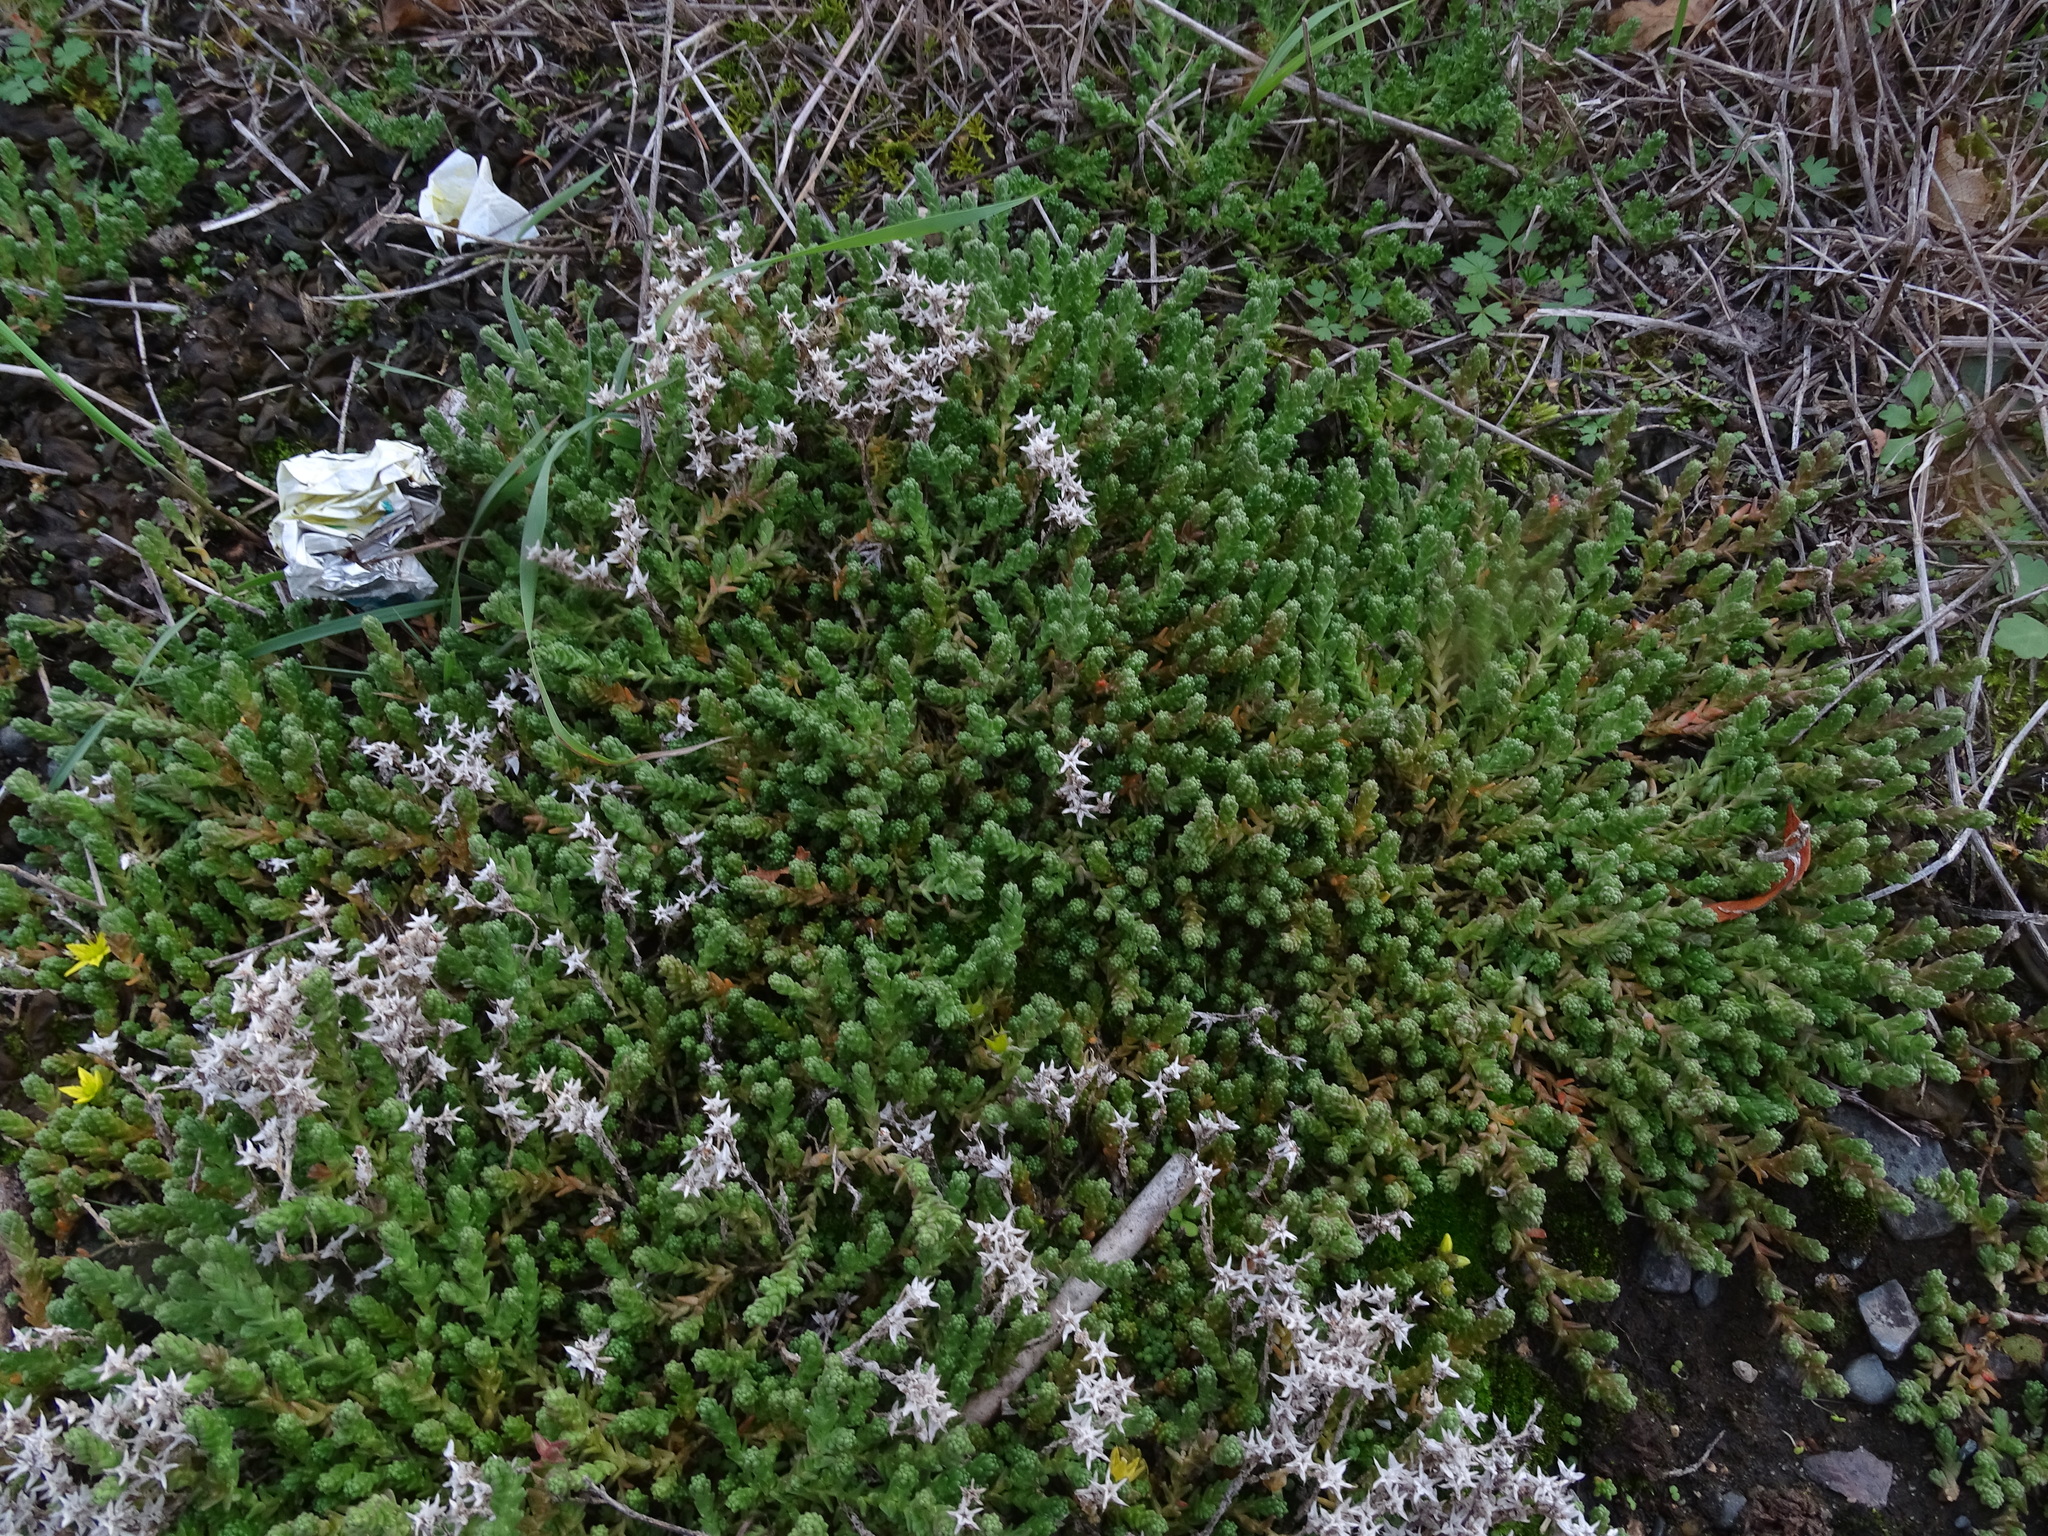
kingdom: Plantae
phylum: Tracheophyta
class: Magnoliopsida
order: Saxifragales
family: Crassulaceae
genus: Sedum
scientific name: Sedum acre
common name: Biting stonecrop
